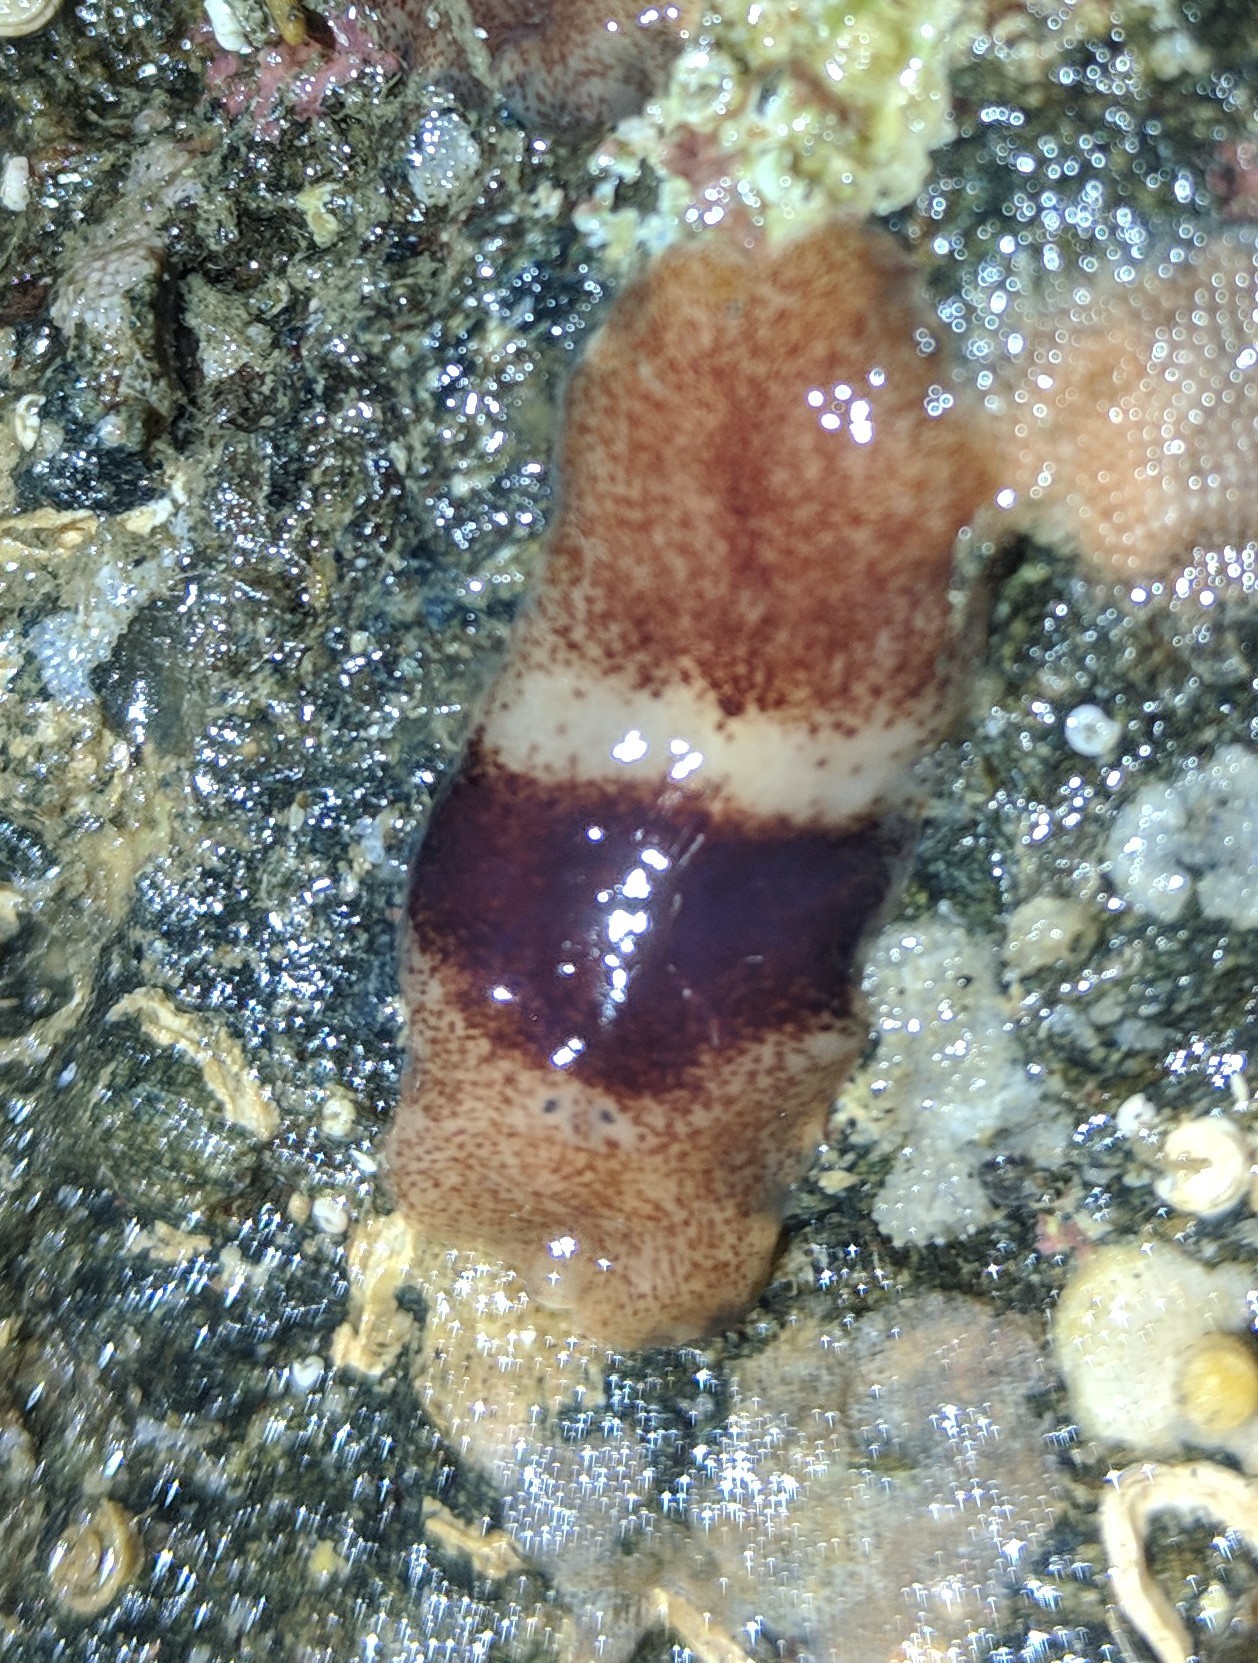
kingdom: Animalia
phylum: Platyhelminthes
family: Notocomplanidae
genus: Notocomplana
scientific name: Notocomplana sanguinea
